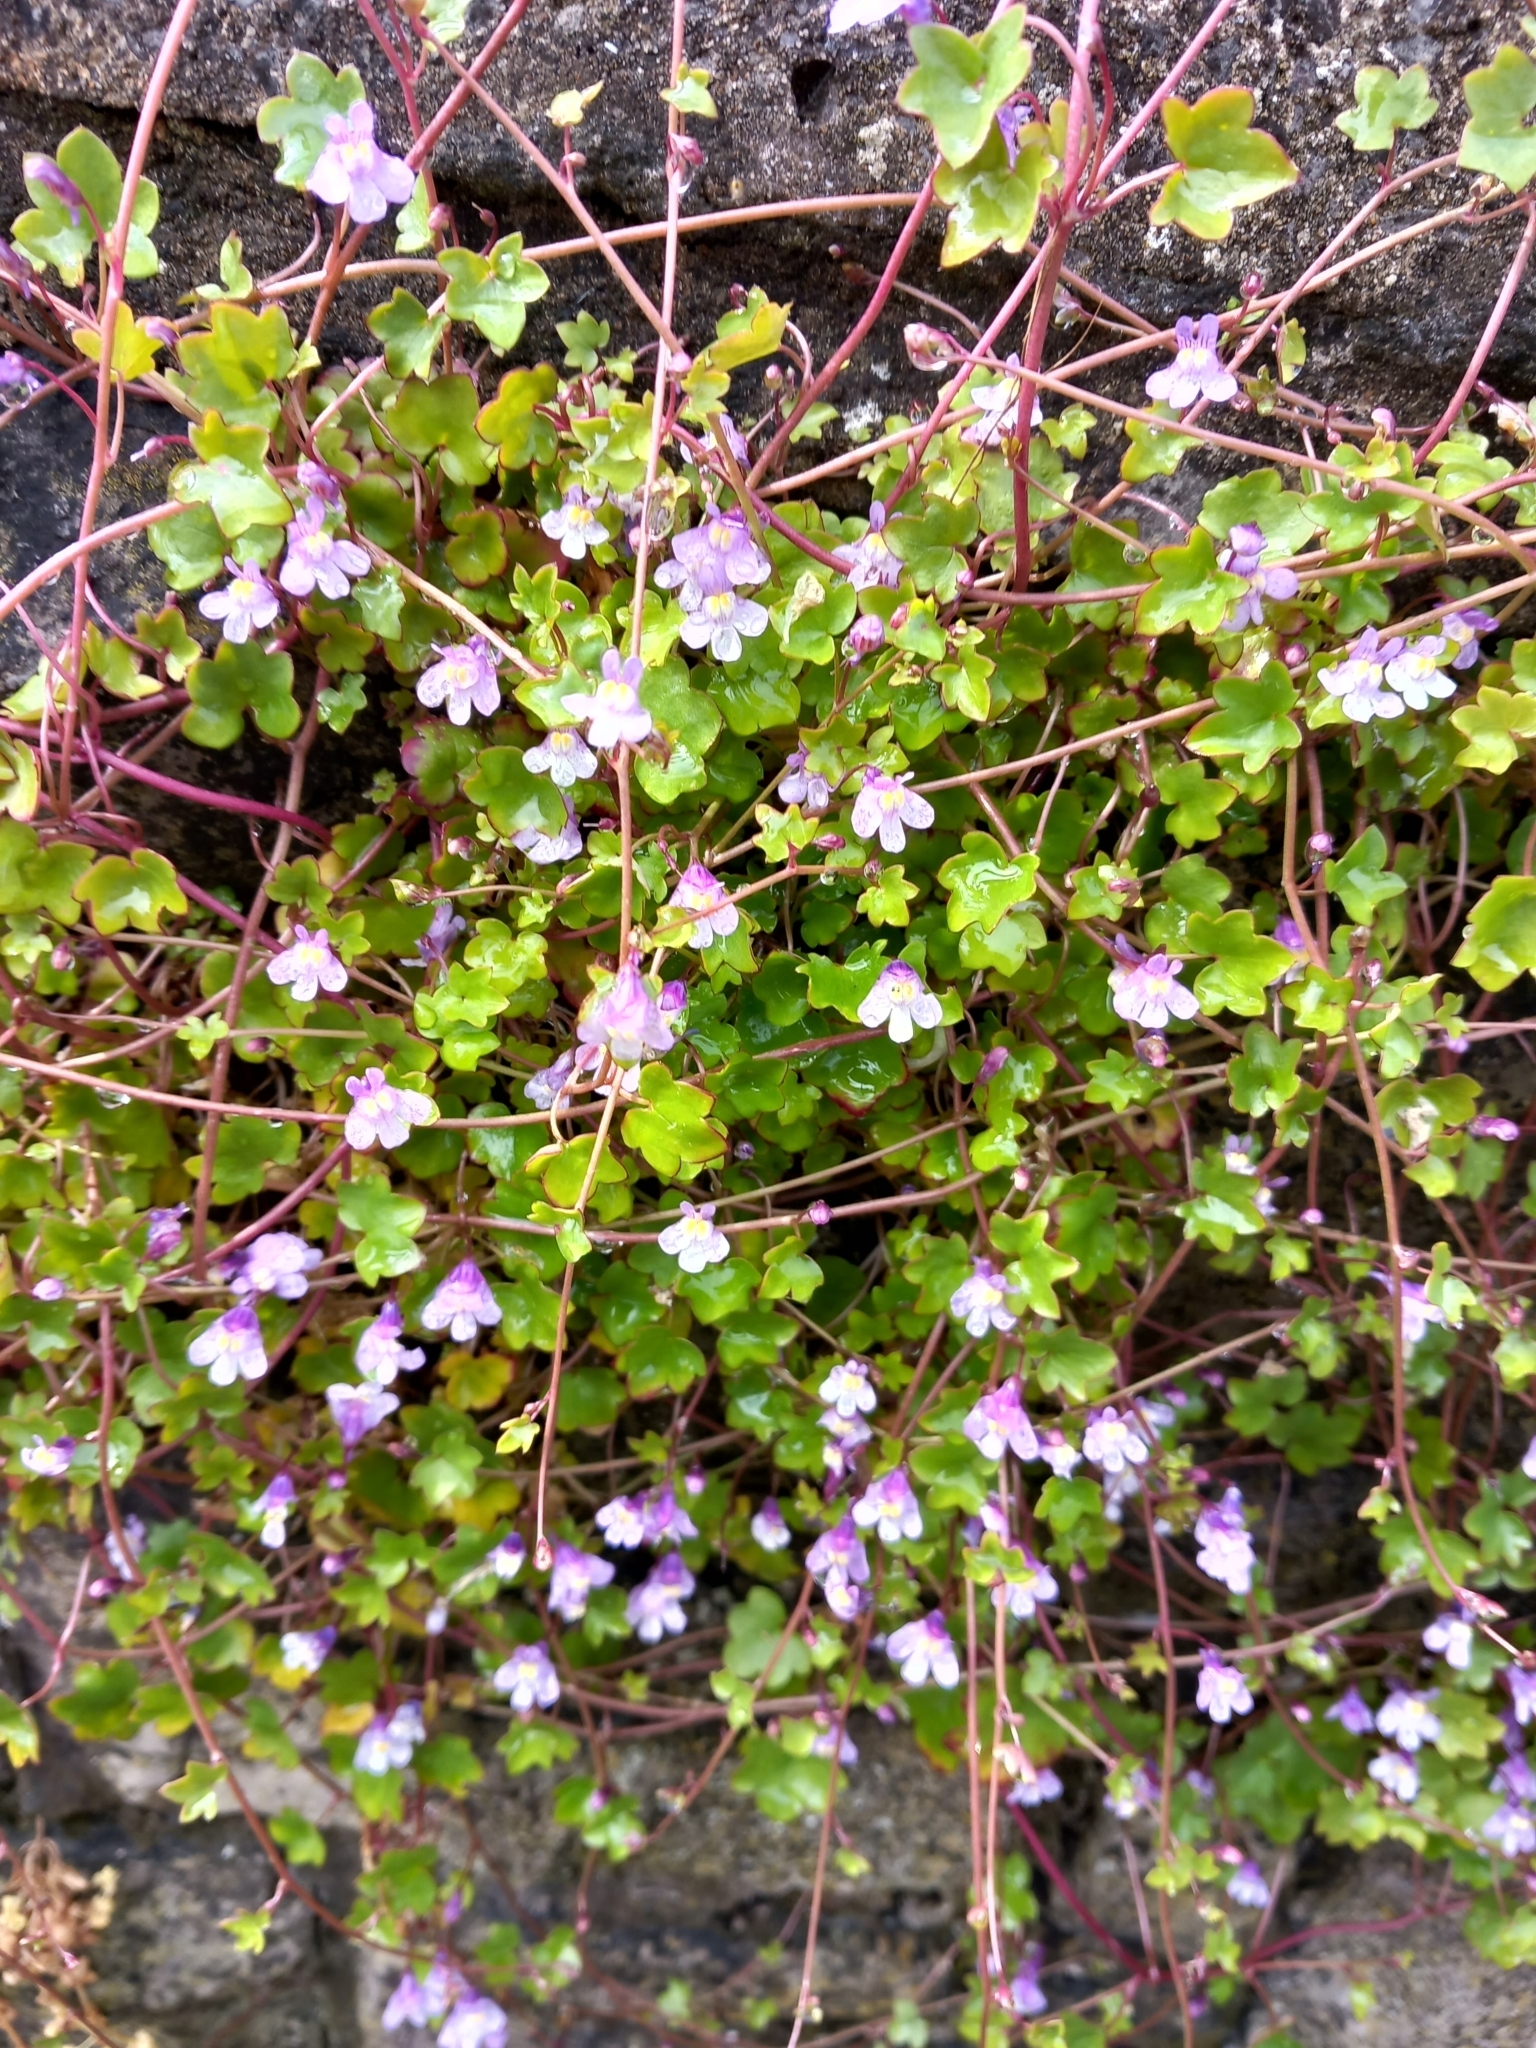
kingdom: Plantae
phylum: Tracheophyta
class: Magnoliopsida
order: Lamiales
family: Plantaginaceae
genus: Cymbalaria
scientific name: Cymbalaria muralis
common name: Ivy-leaved toadflax
